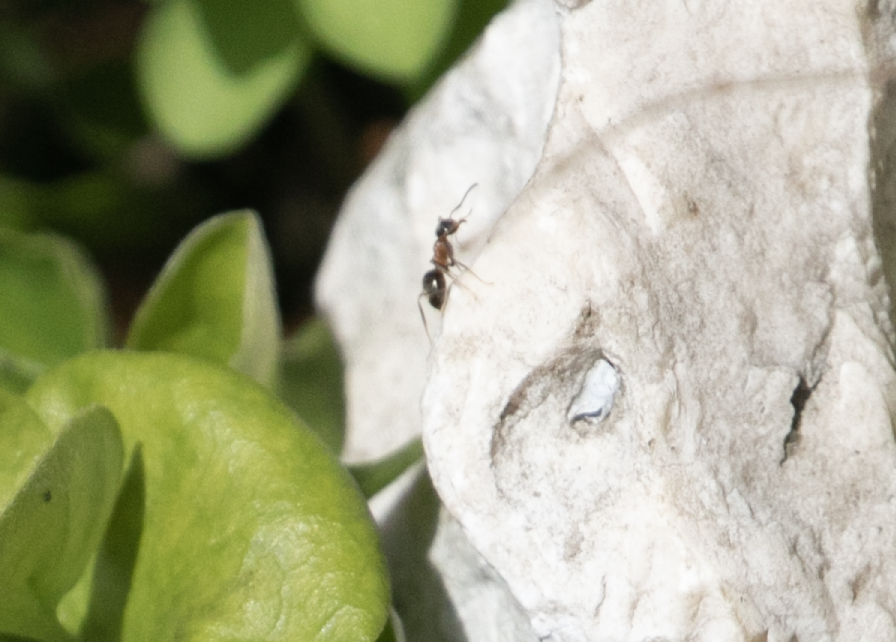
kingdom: Animalia
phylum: Arthropoda
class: Insecta
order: Hymenoptera
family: Formicidae
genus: Lasius
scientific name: Lasius emarginatus
